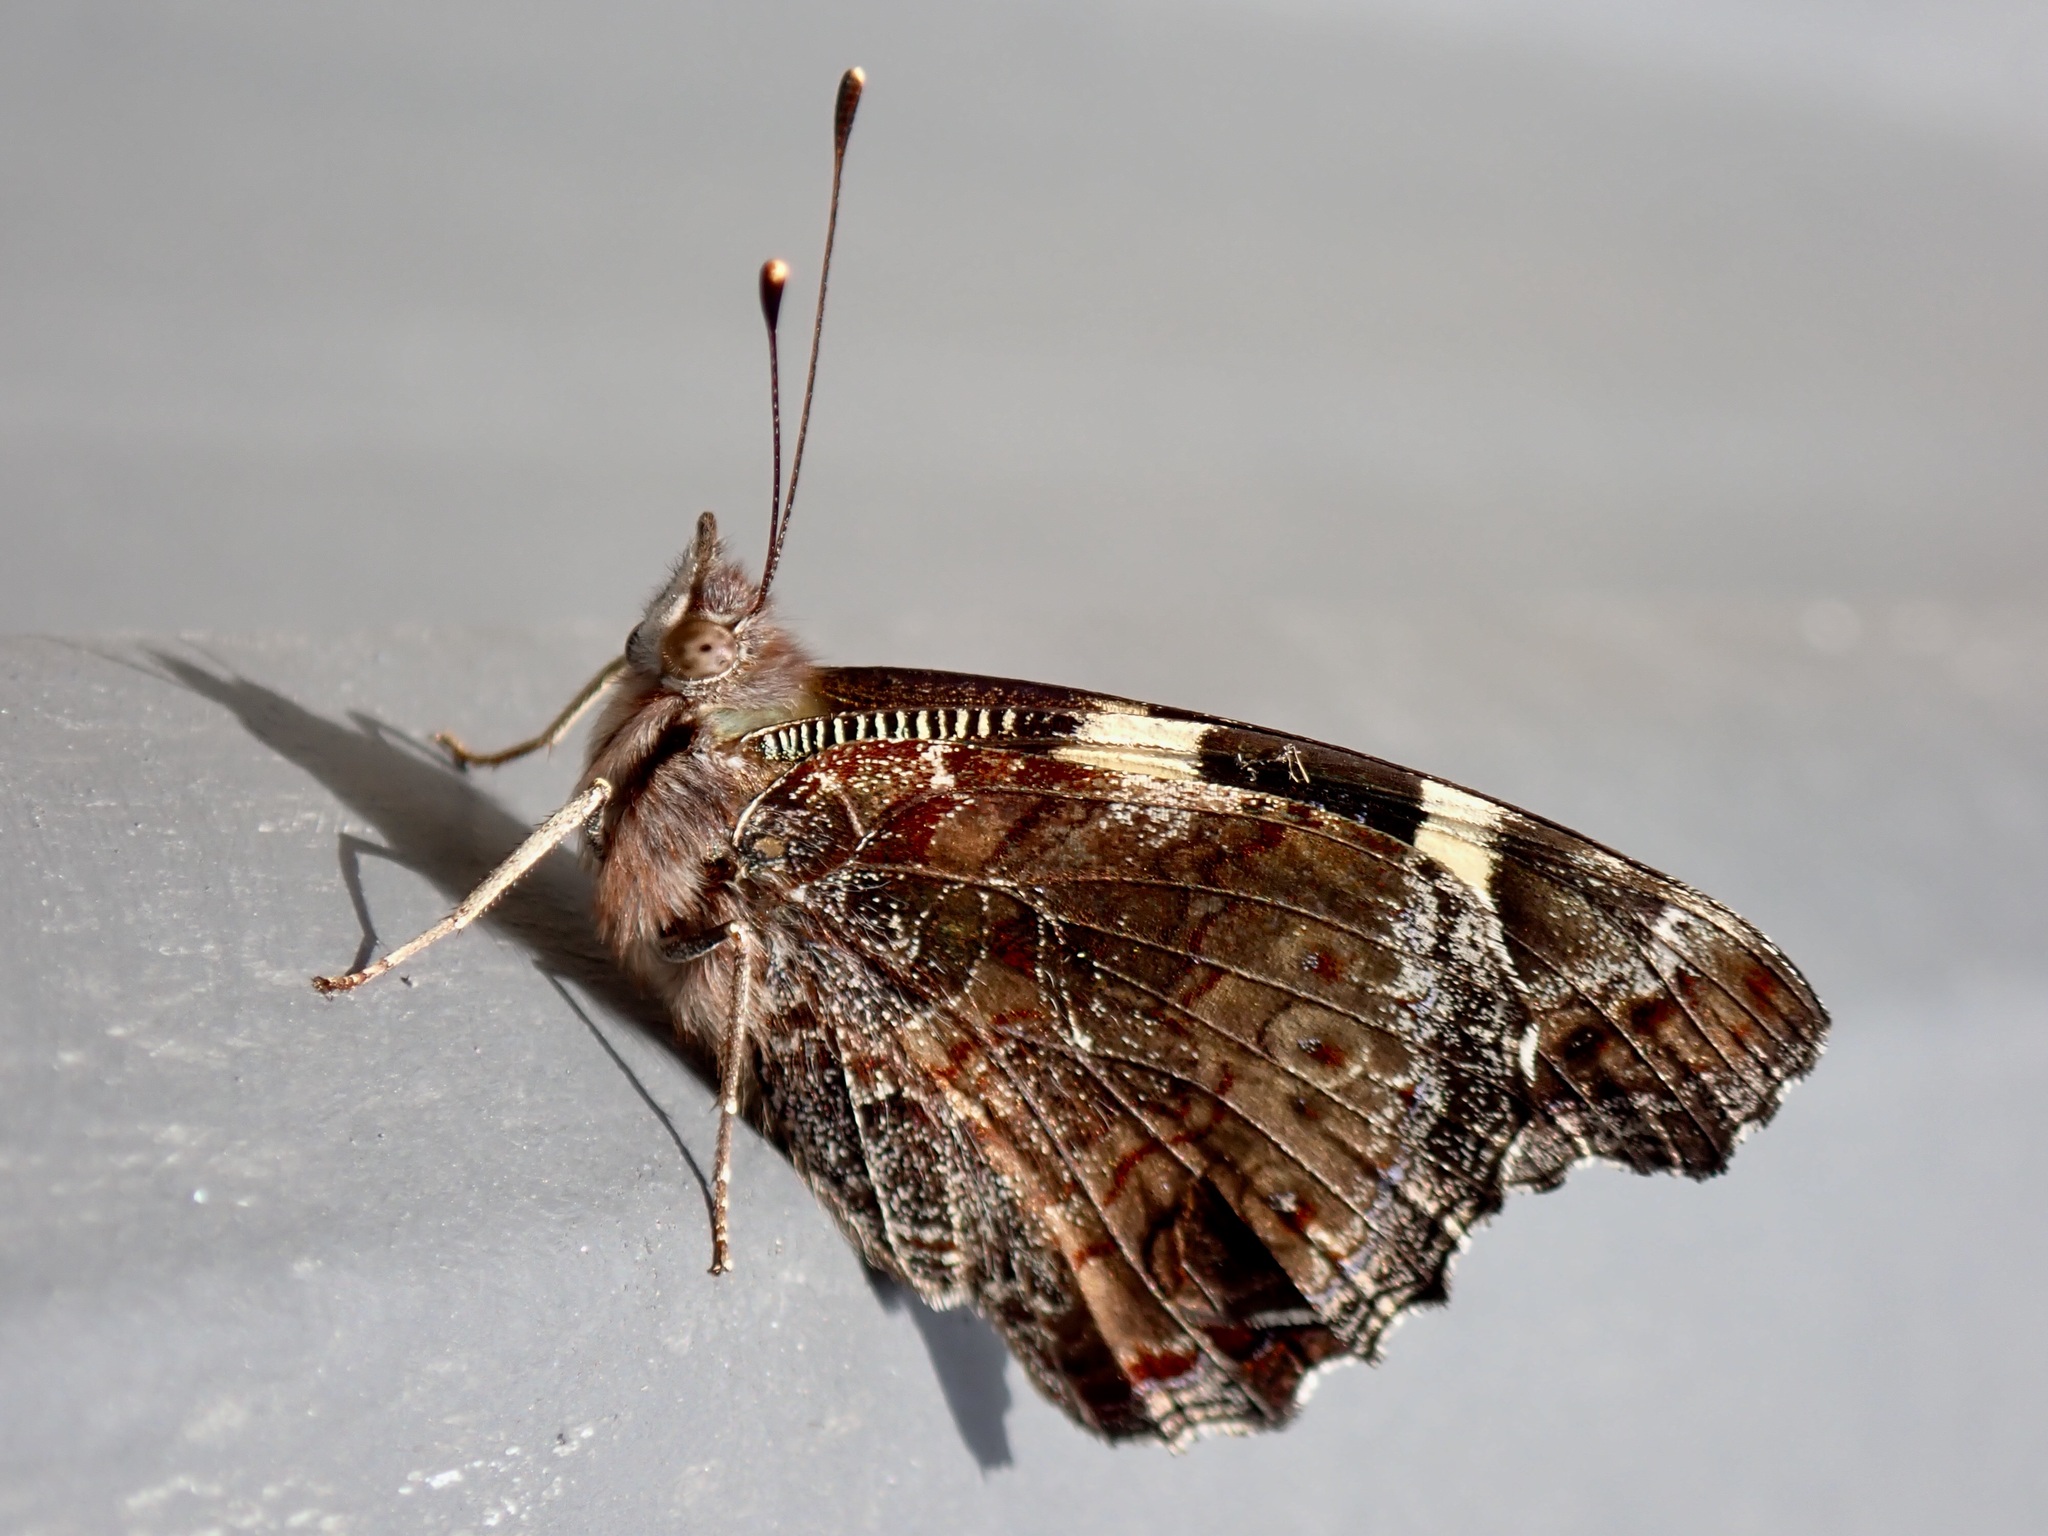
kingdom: Animalia
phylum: Arthropoda
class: Insecta
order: Lepidoptera
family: Nymphalidae
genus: Vanessa
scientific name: Vanessa itea
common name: Yellow admiral
